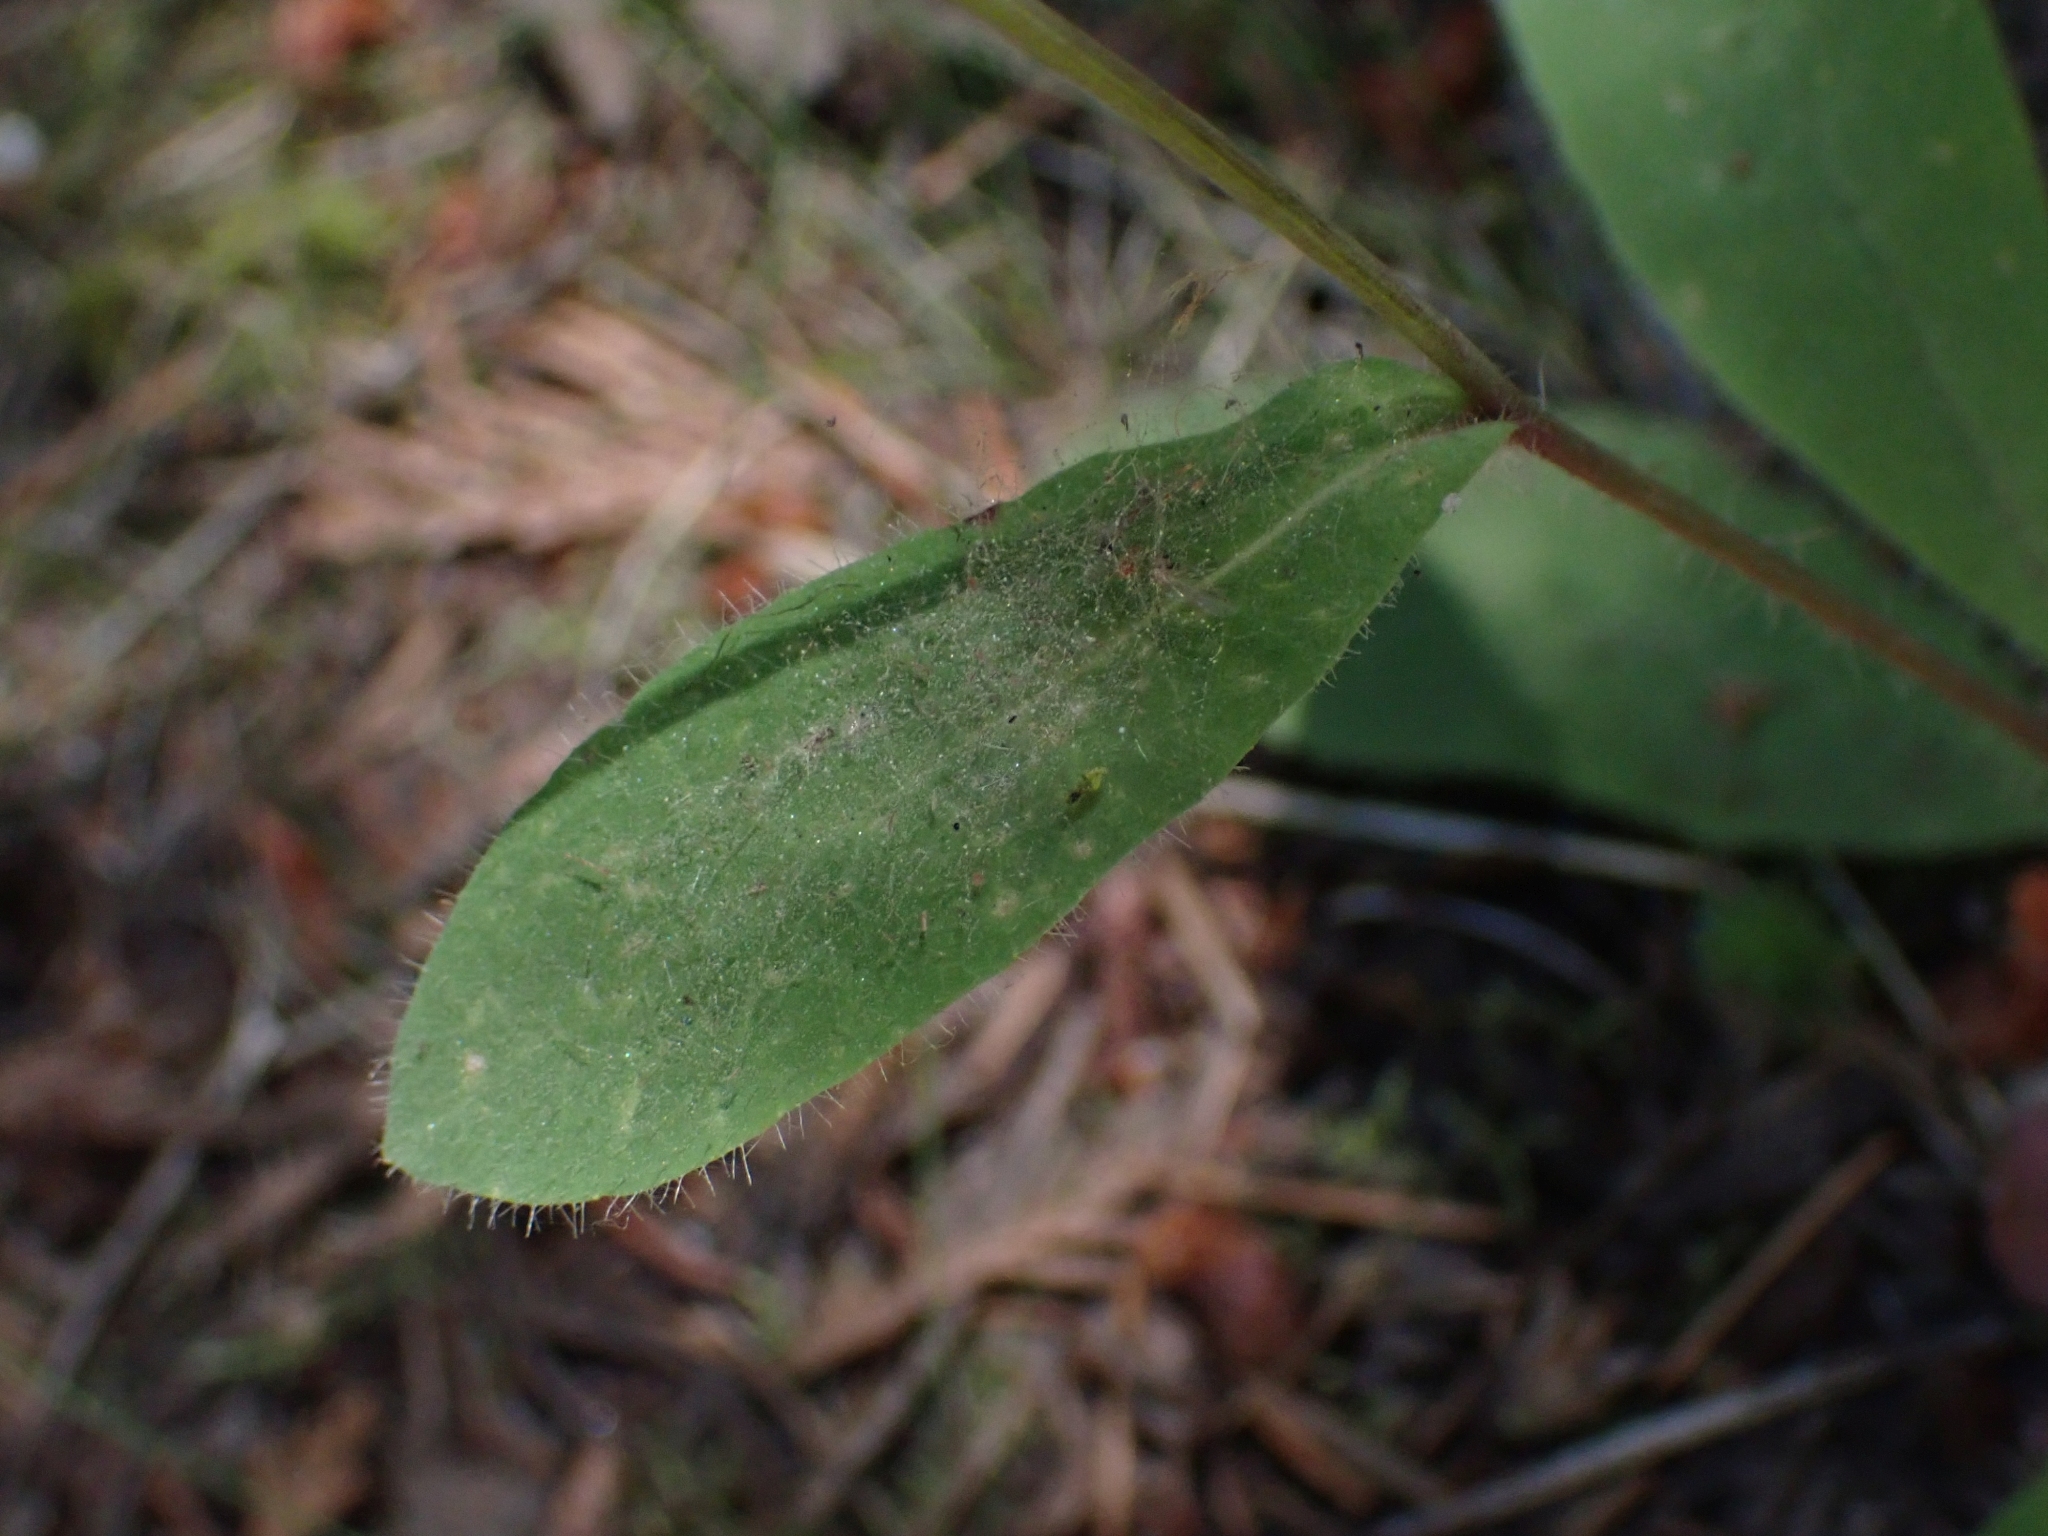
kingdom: Plantae
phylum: Tracheophyta
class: Magnoliopsida
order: Asterales
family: Asteraceae
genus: Hieracium
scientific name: Hieracium albiflorum
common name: White hawkweed
